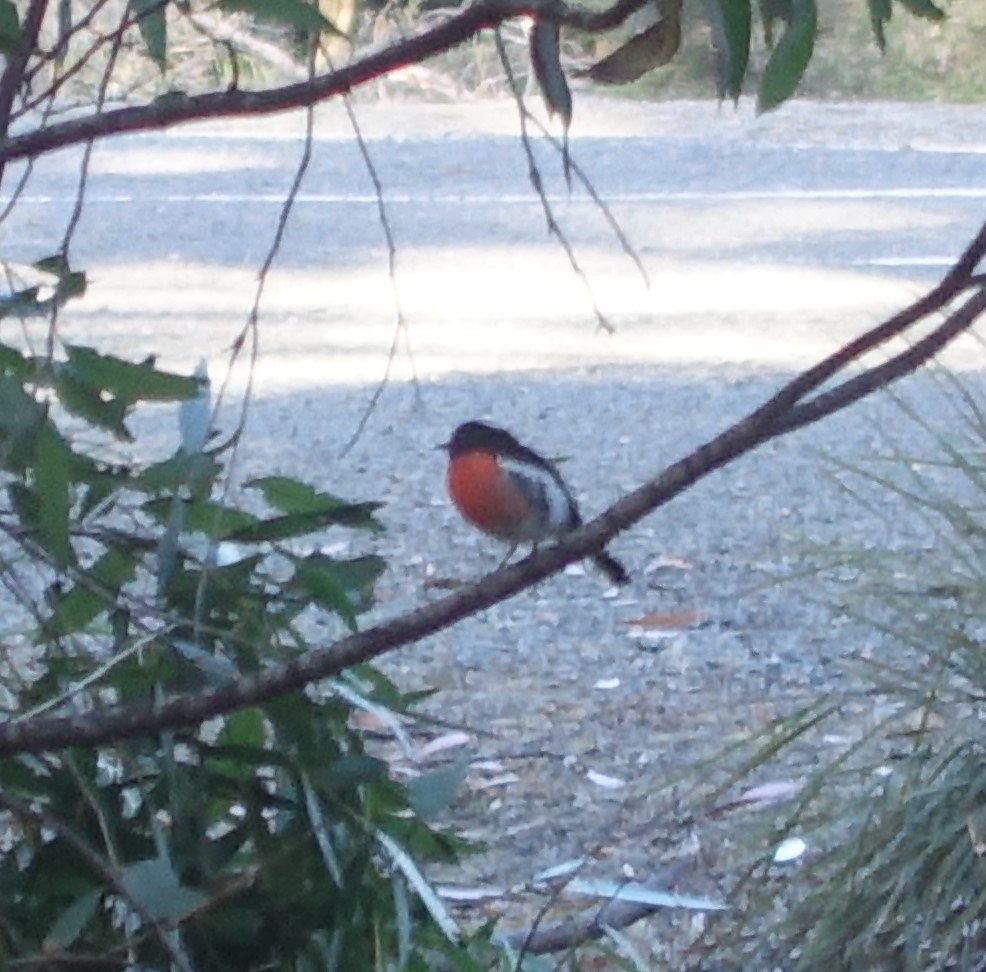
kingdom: Animalia
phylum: Chordata
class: Aves
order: Passeriformes
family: Petroicidae
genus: Petroica
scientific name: Petroica boodang
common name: Scarlet robin
